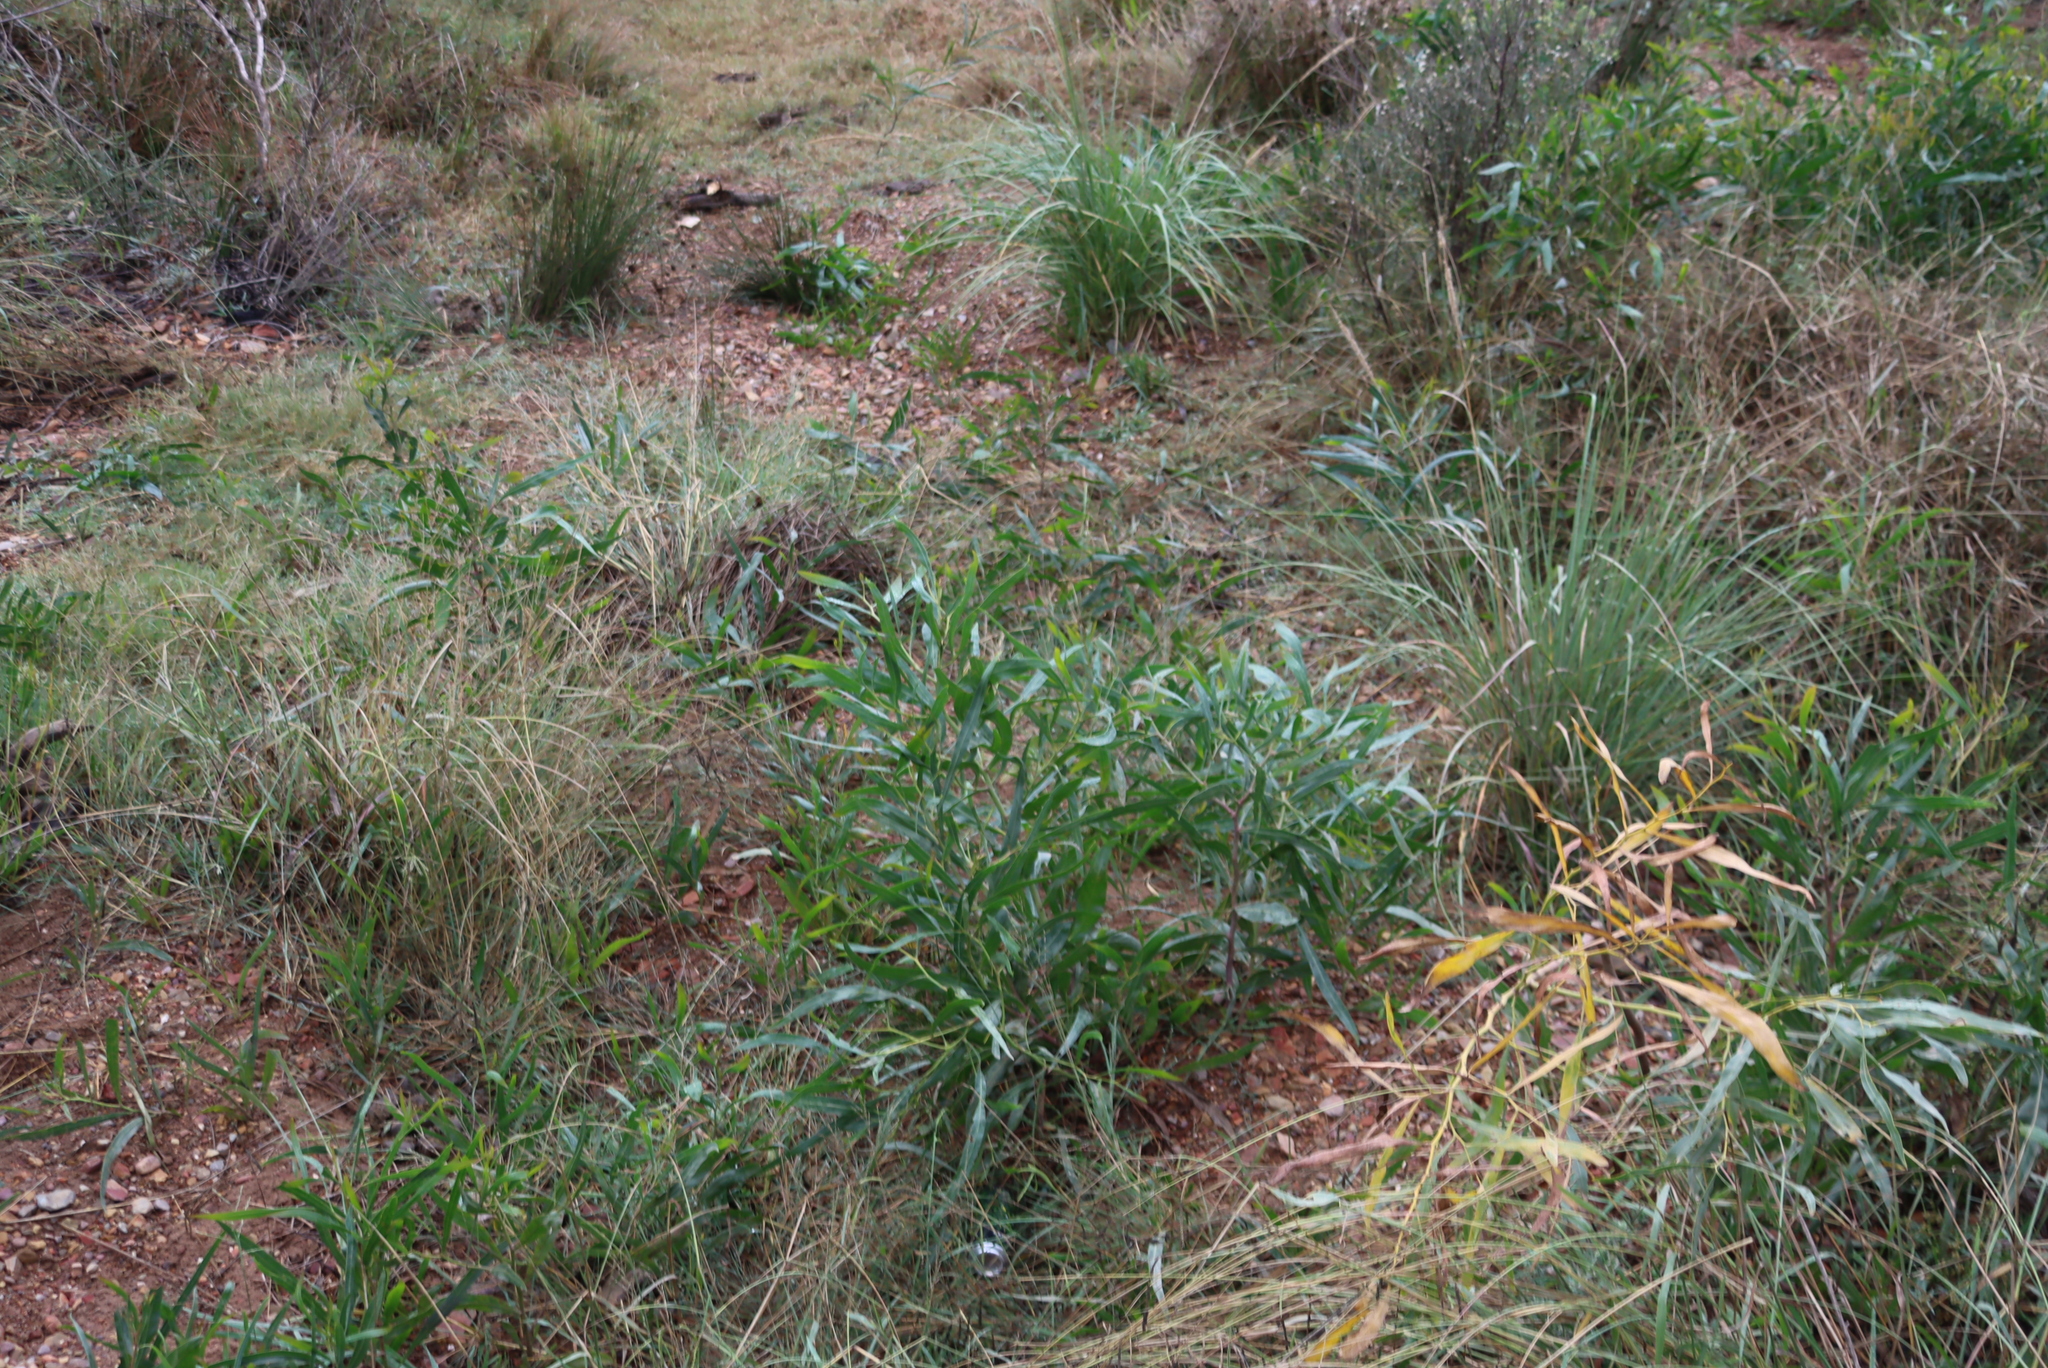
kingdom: Plantae
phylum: Tracheophyta
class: Magnoliopsida
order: Fabales
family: Fabaceae
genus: Acacia
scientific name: Acacia saligna
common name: Orange wattle
